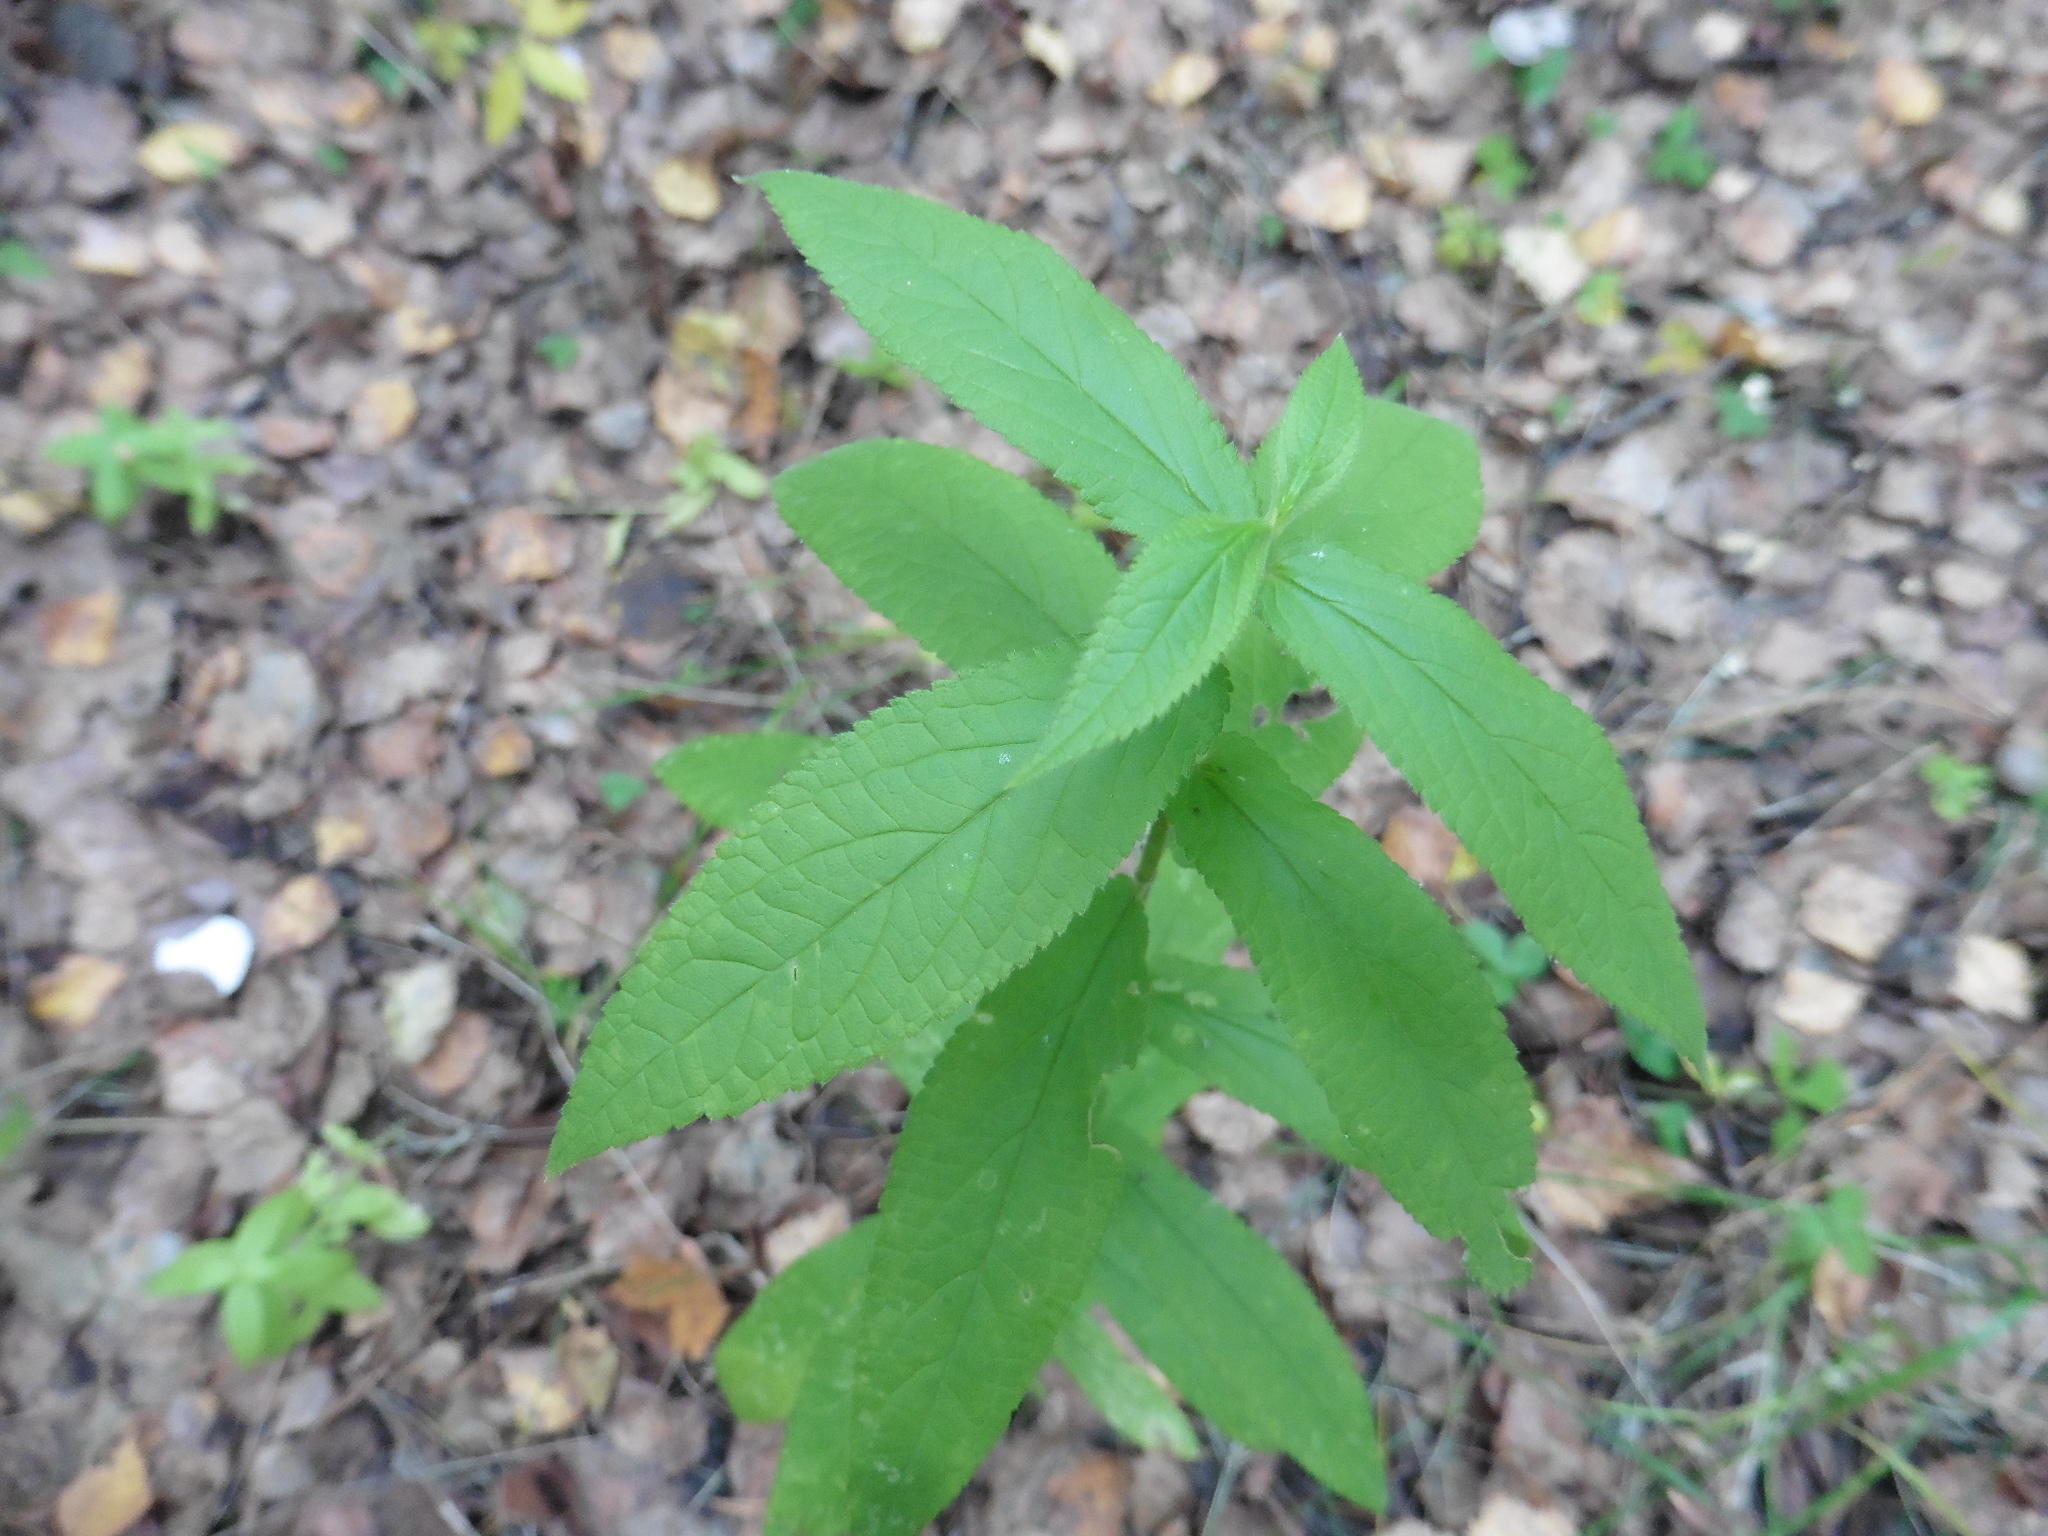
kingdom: Plantae
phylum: Tracheophyta
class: Magnoliopsida
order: Lamiales
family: Lamiaceae
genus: Stachys
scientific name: Stachys palustris
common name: Marsh woundwort
